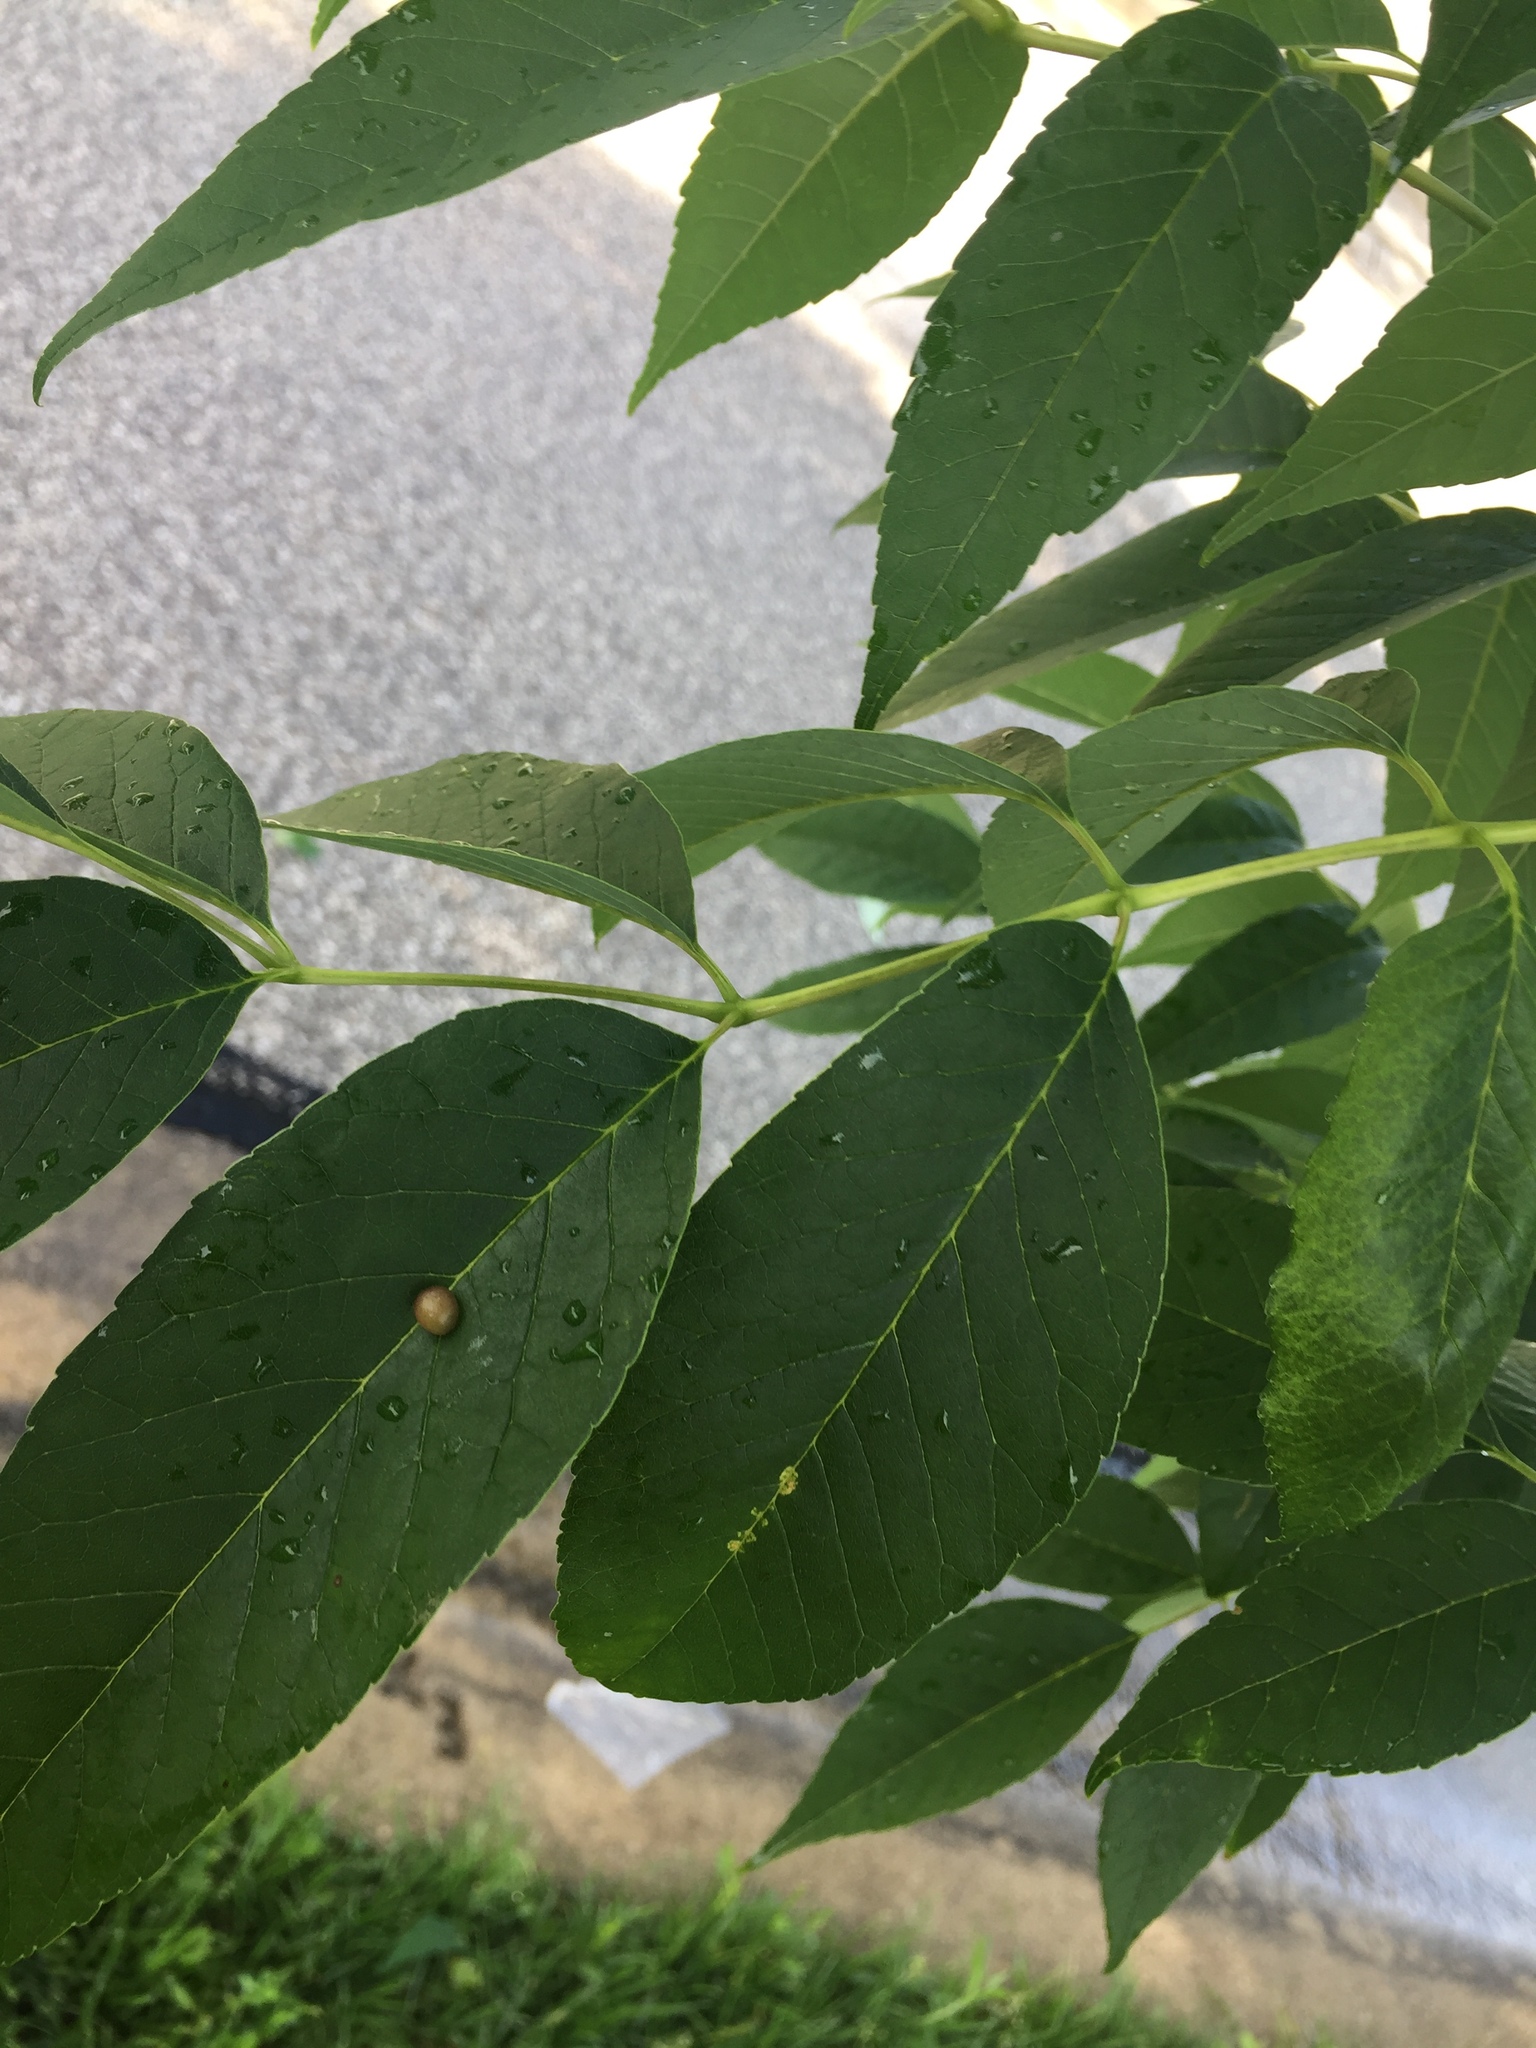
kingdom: Animalia
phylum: Arthropoda
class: Insecta
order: Diptera
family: Cecidomyiidae
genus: Dasineura
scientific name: Dasineura pellex
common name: Ash bullet gall midge
